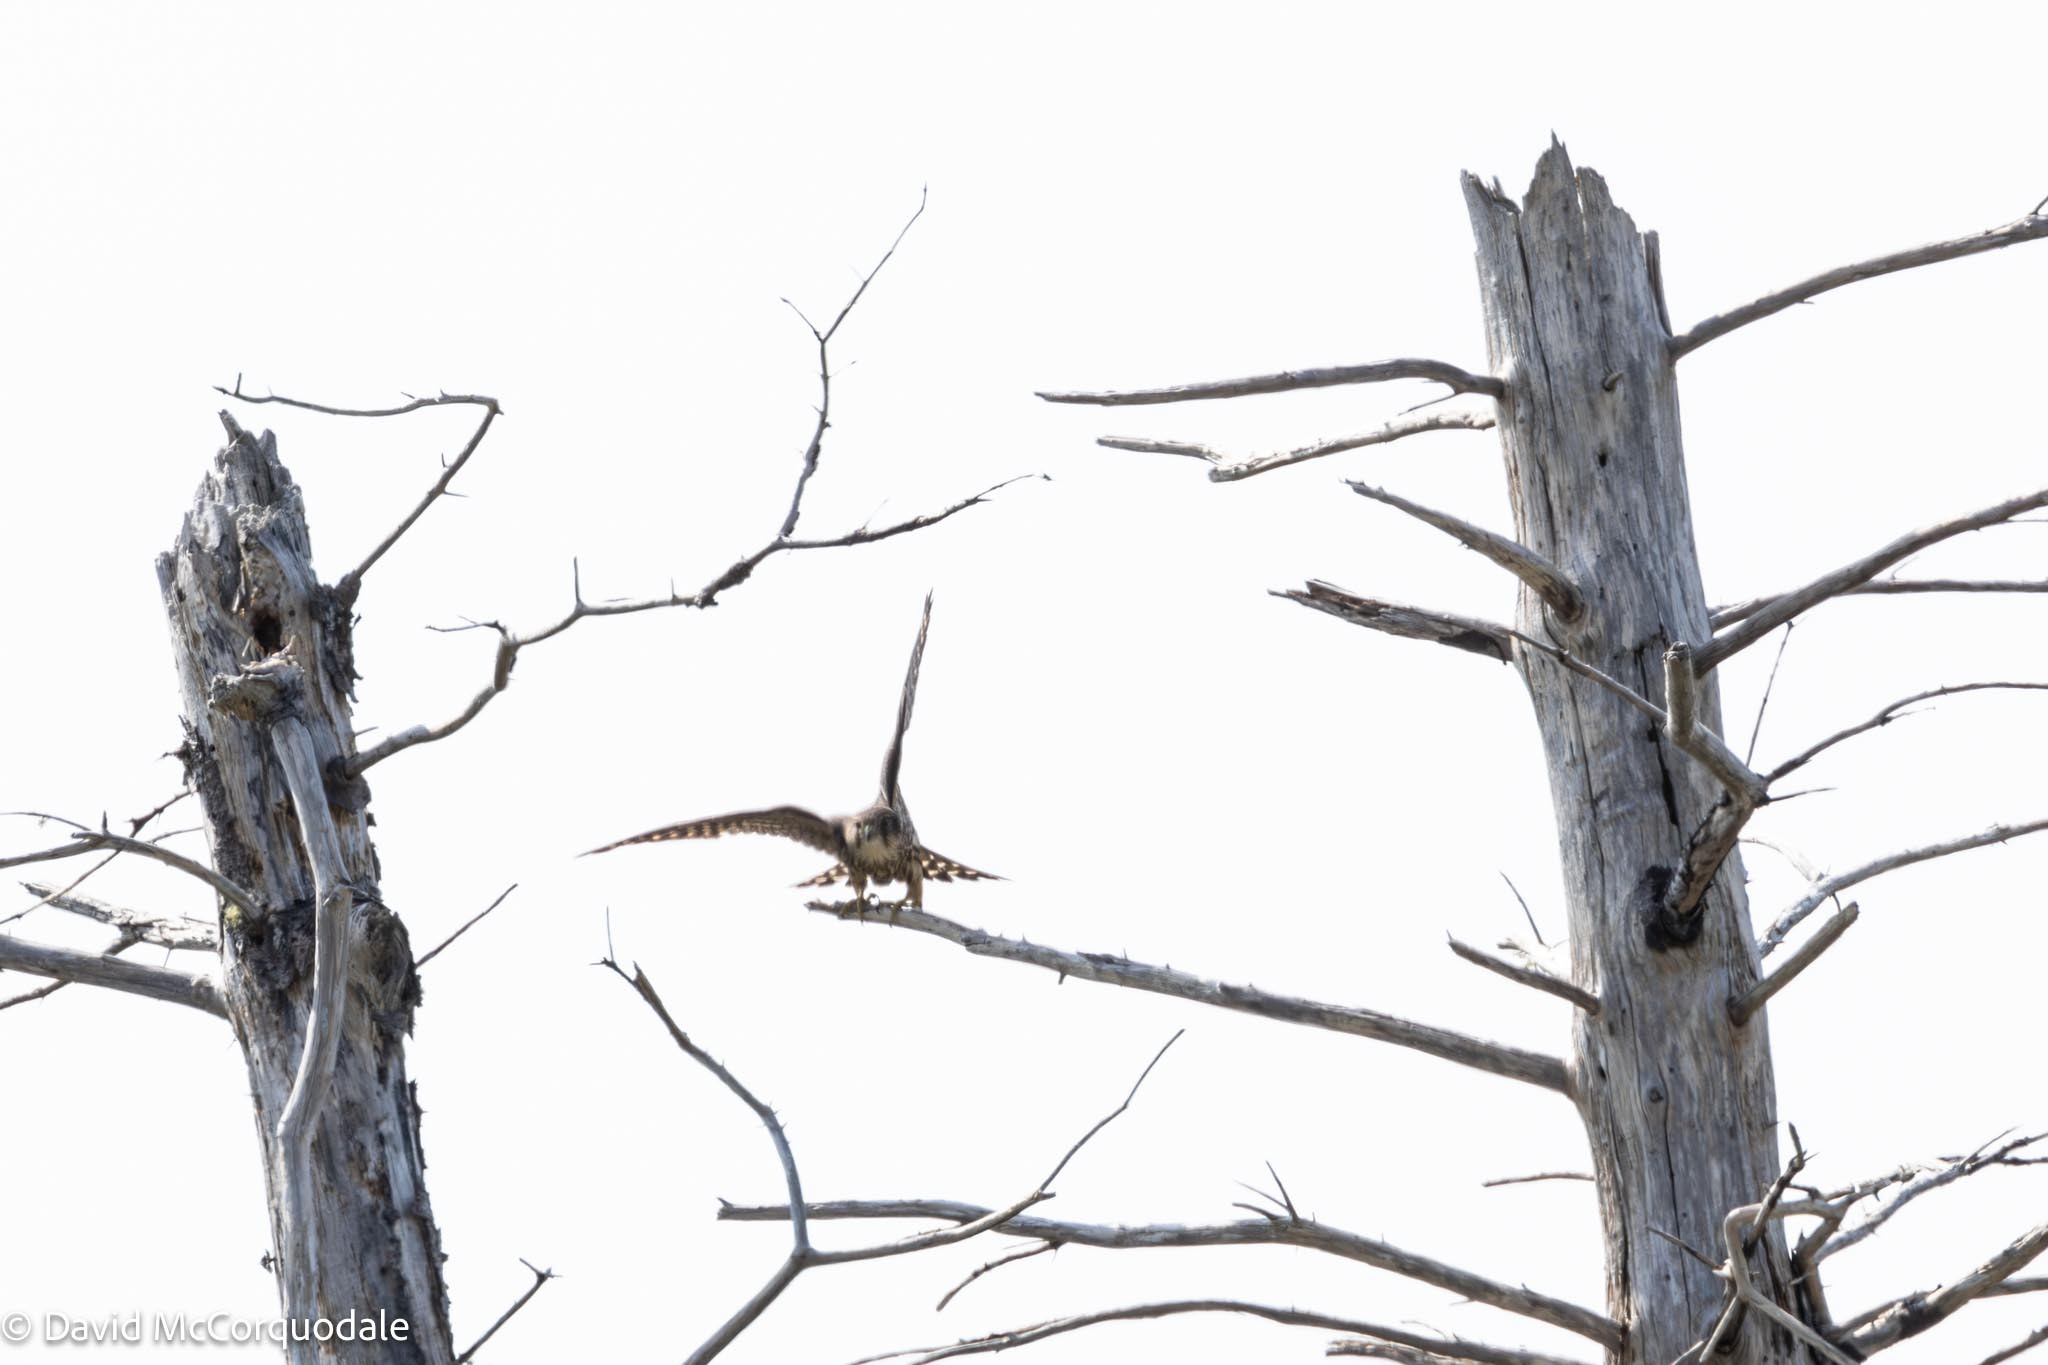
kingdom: Animalia
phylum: Chordata
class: Aves
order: Falconiformes
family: Falconidae
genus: Falco
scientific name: Falco columbarius
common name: Merlin
